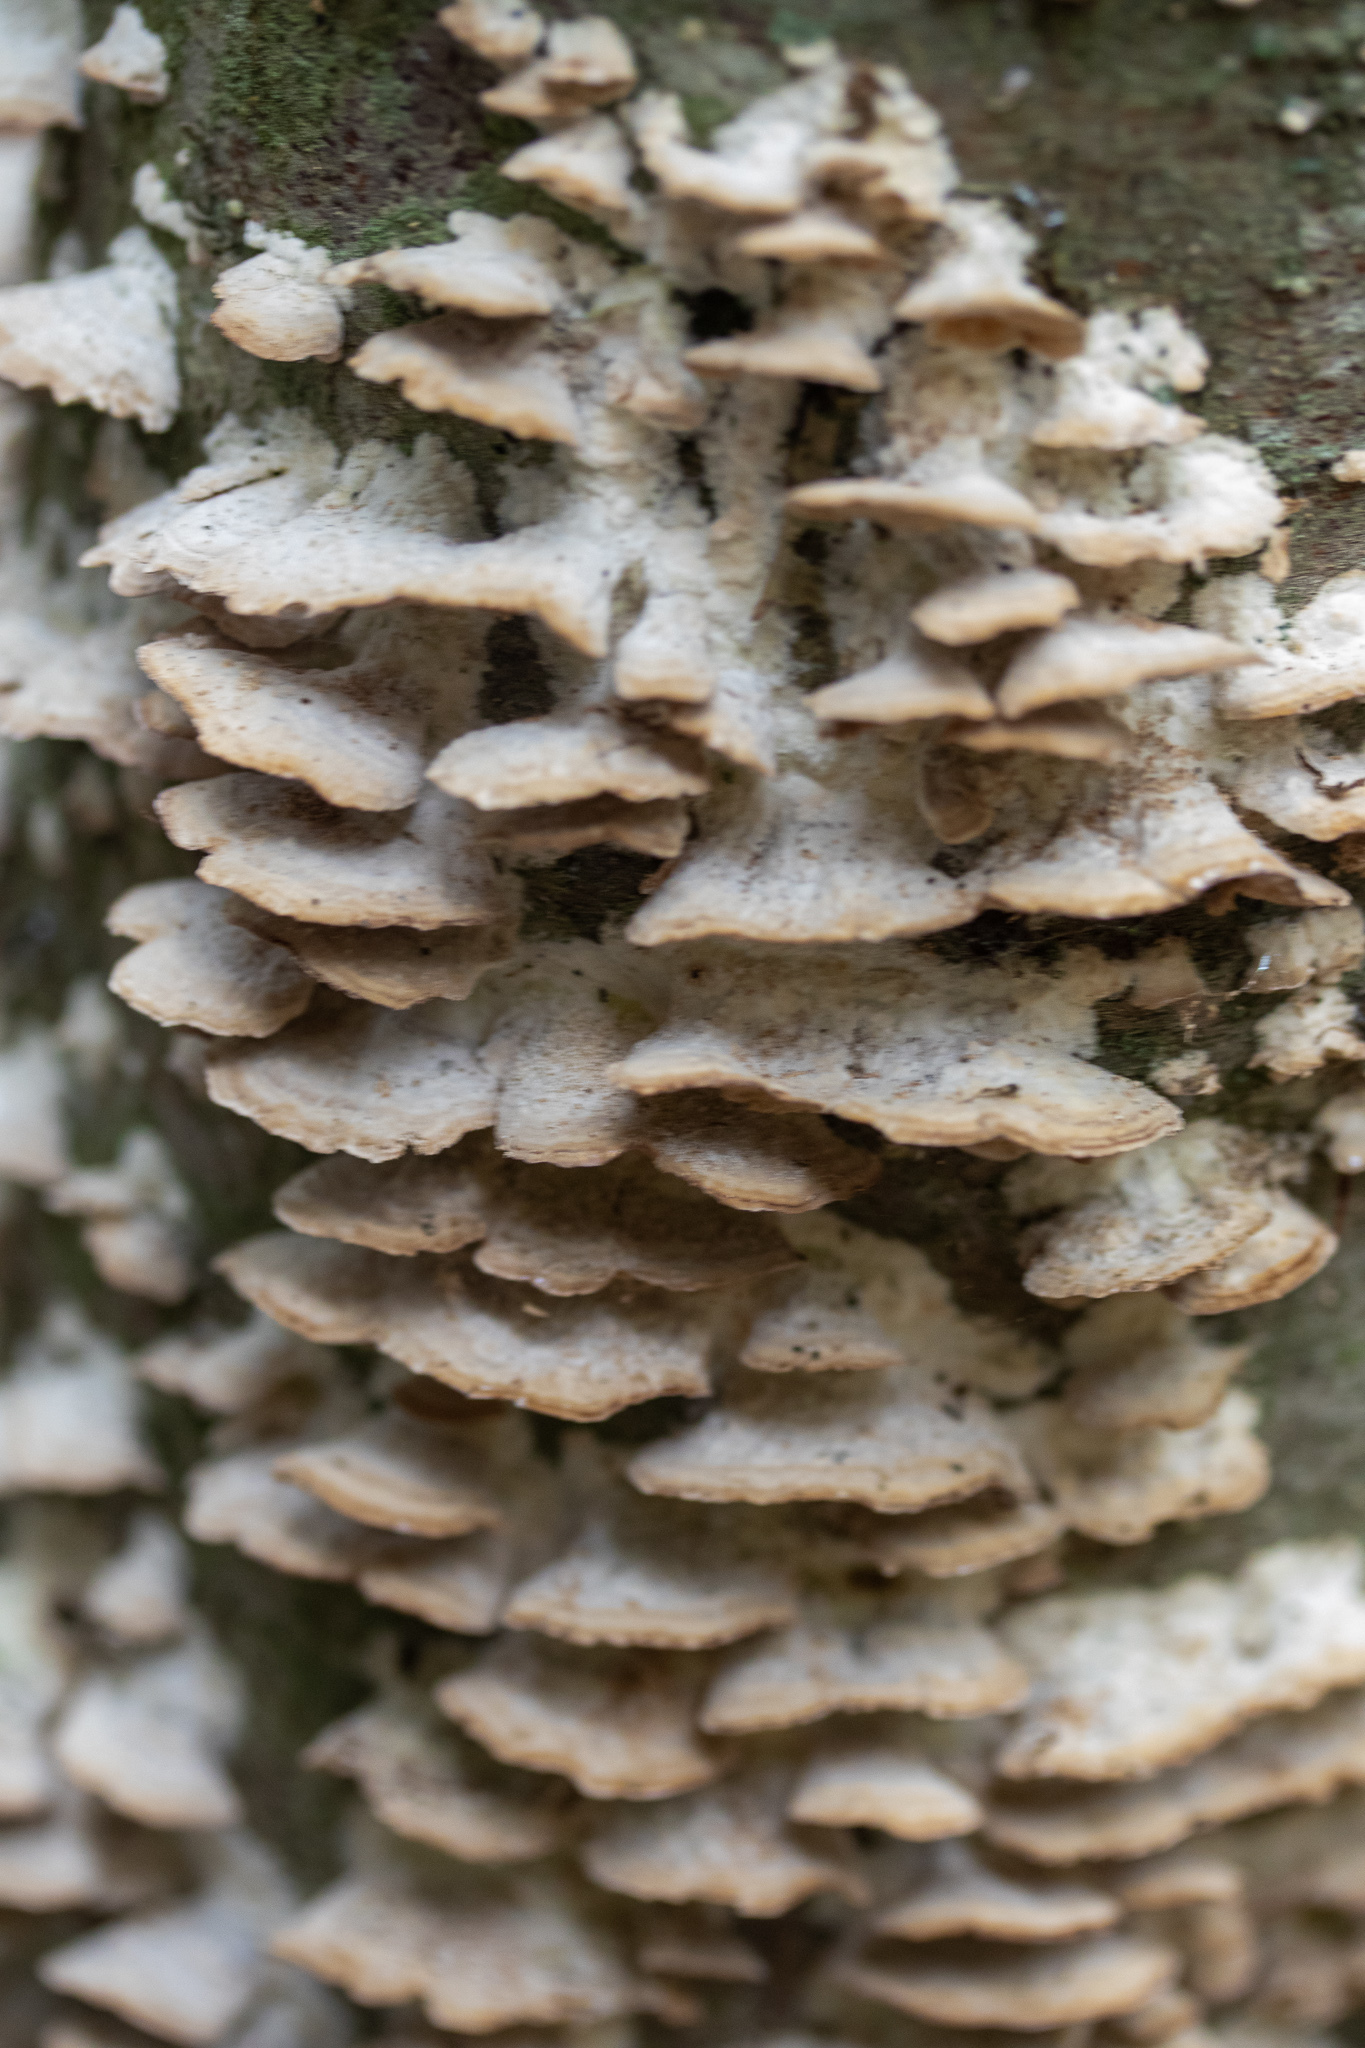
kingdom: Fungi
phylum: Basidiomycota
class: Agaricomycetes
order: Hymenochaetales
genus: Trichaptum
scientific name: Trichaptum biforme
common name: Violet-toothed polypore
